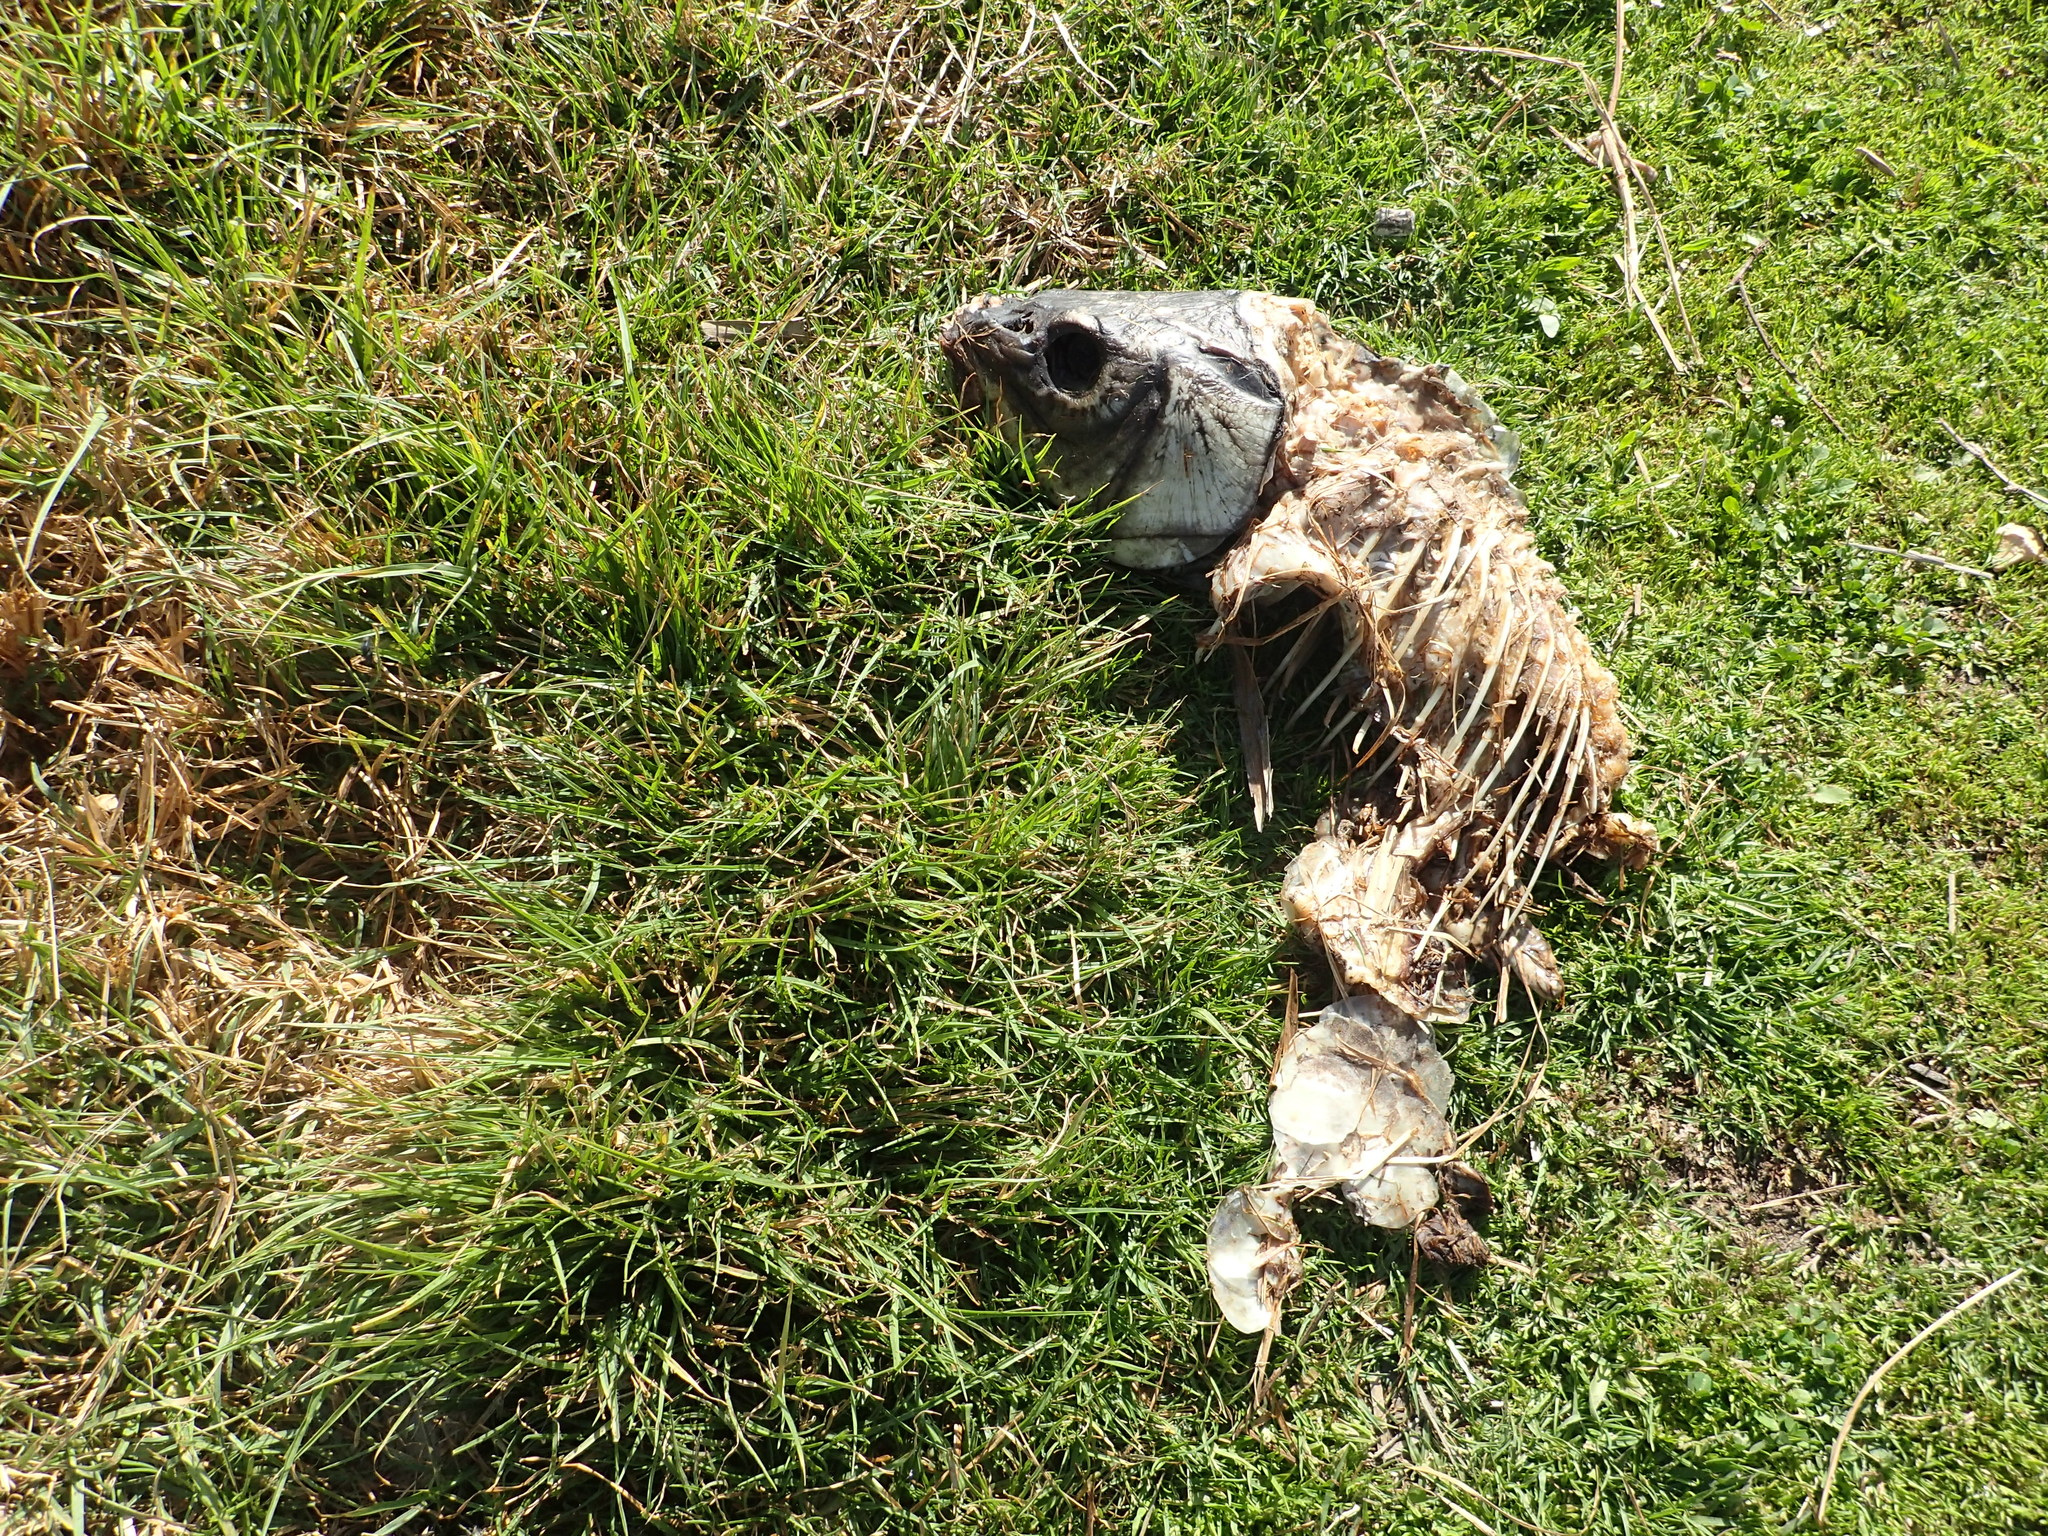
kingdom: Animalia
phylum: Chordata
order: Cypriniformes
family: Cyprinidae
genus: Cyprinus
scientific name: Cyprinus carpio
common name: Common carp
